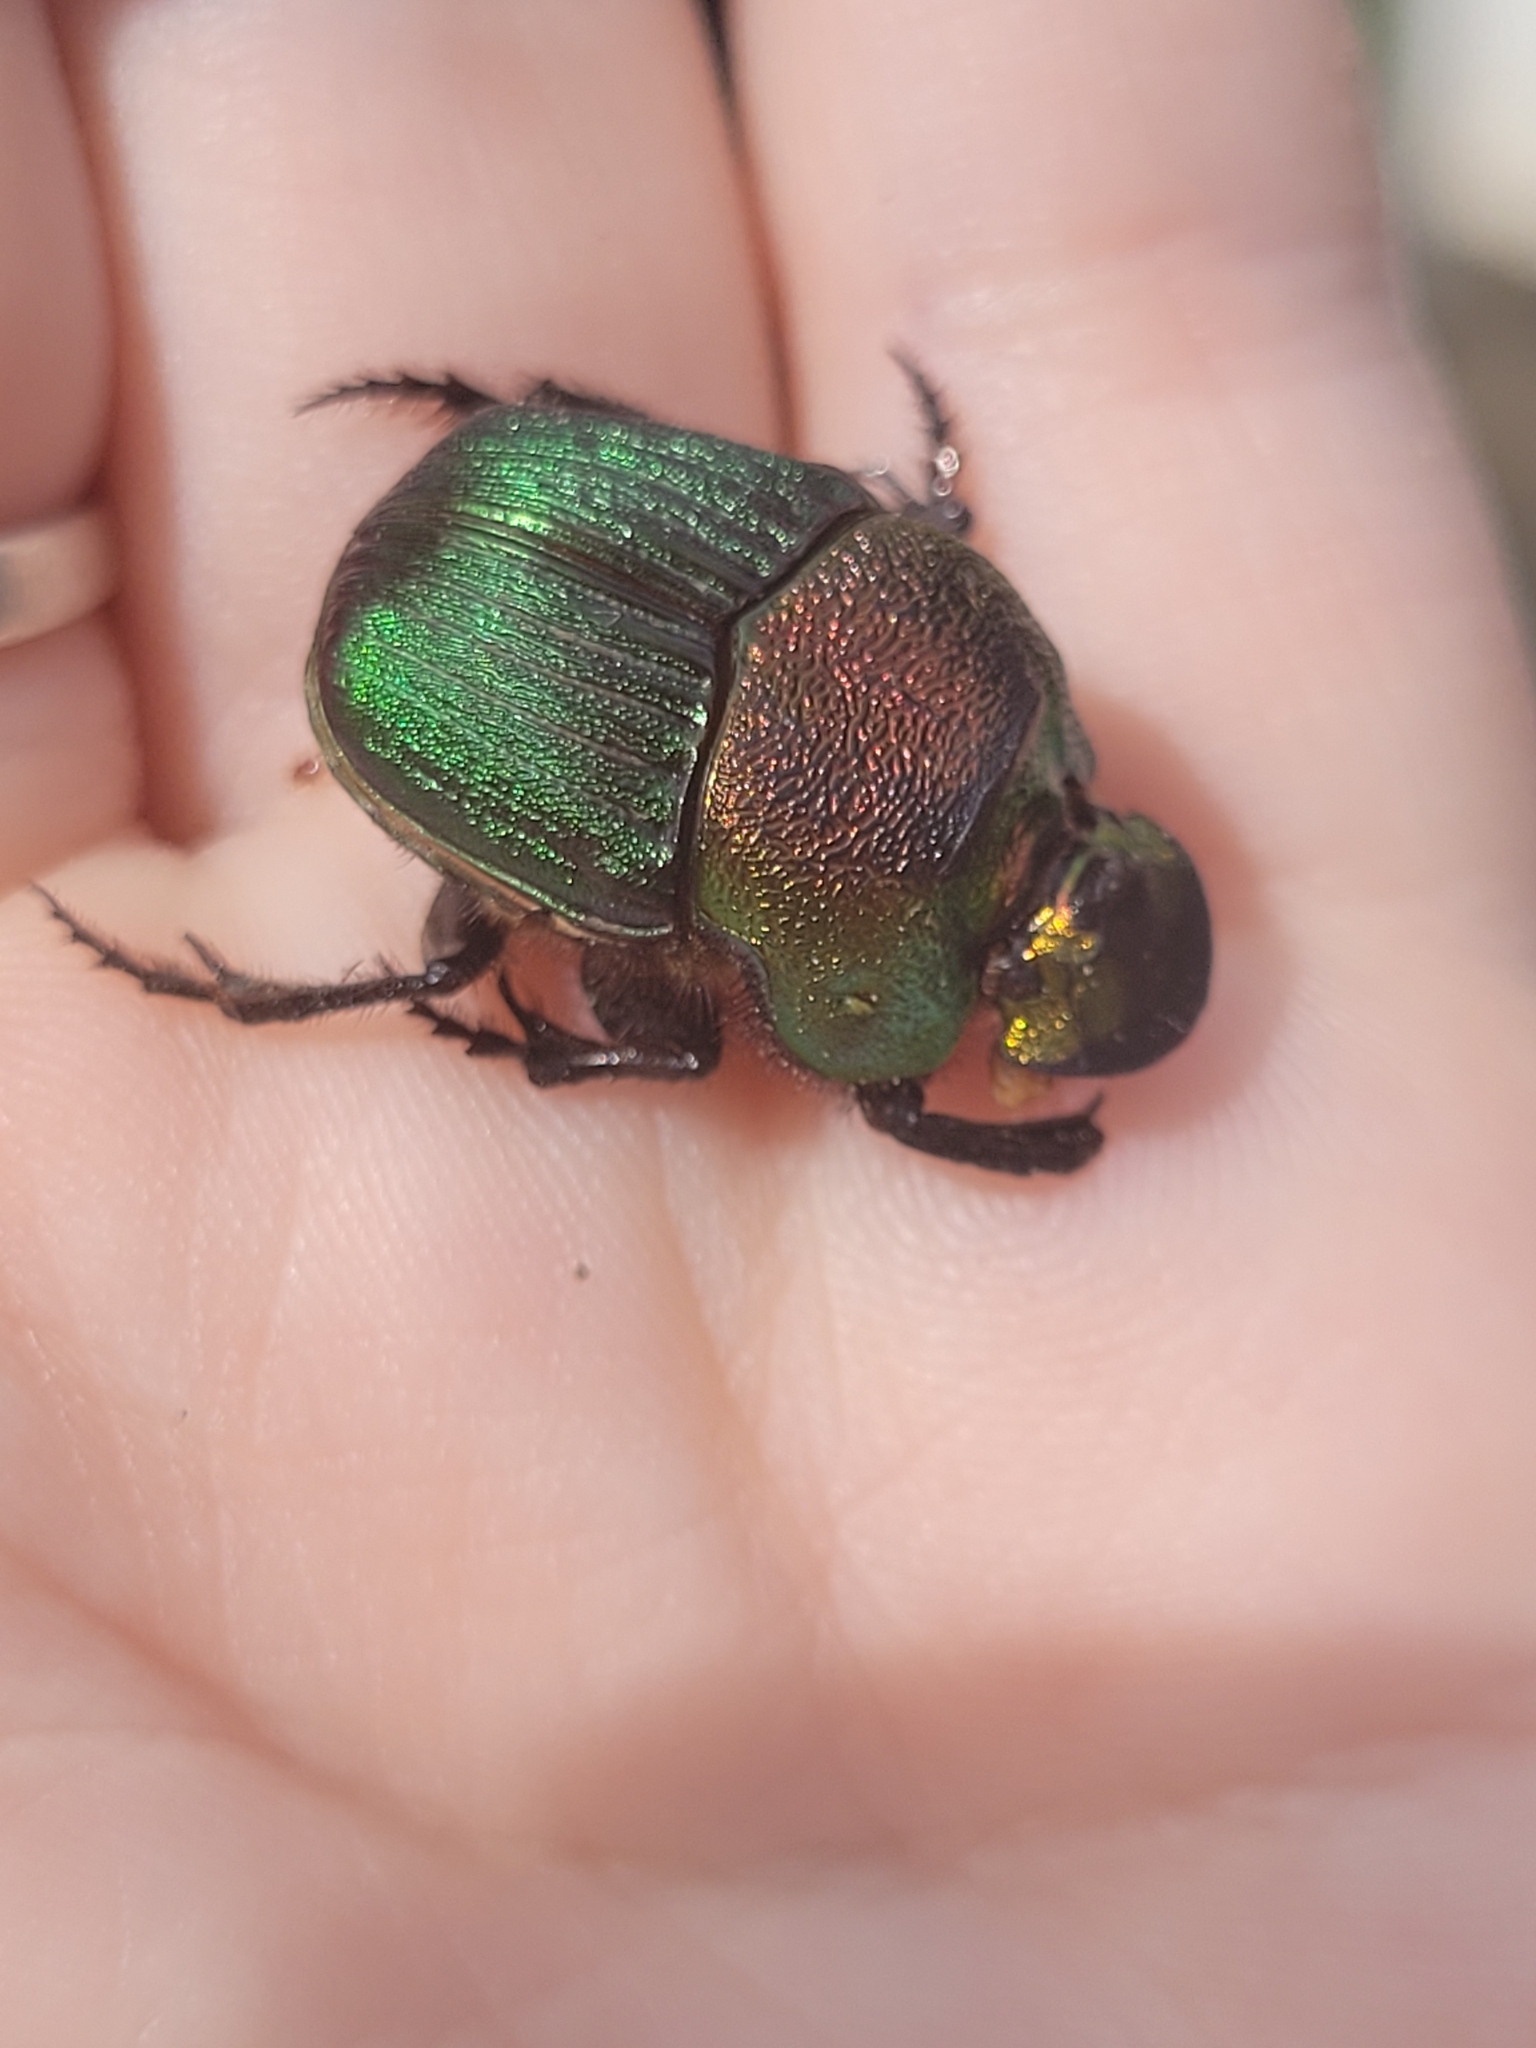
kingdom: Animalia
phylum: Arthropoda
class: Insecta
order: Coleoptera
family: Scarabaeidae
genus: Phanaeus
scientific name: Phanaeus vindex
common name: Rainbow scarab
